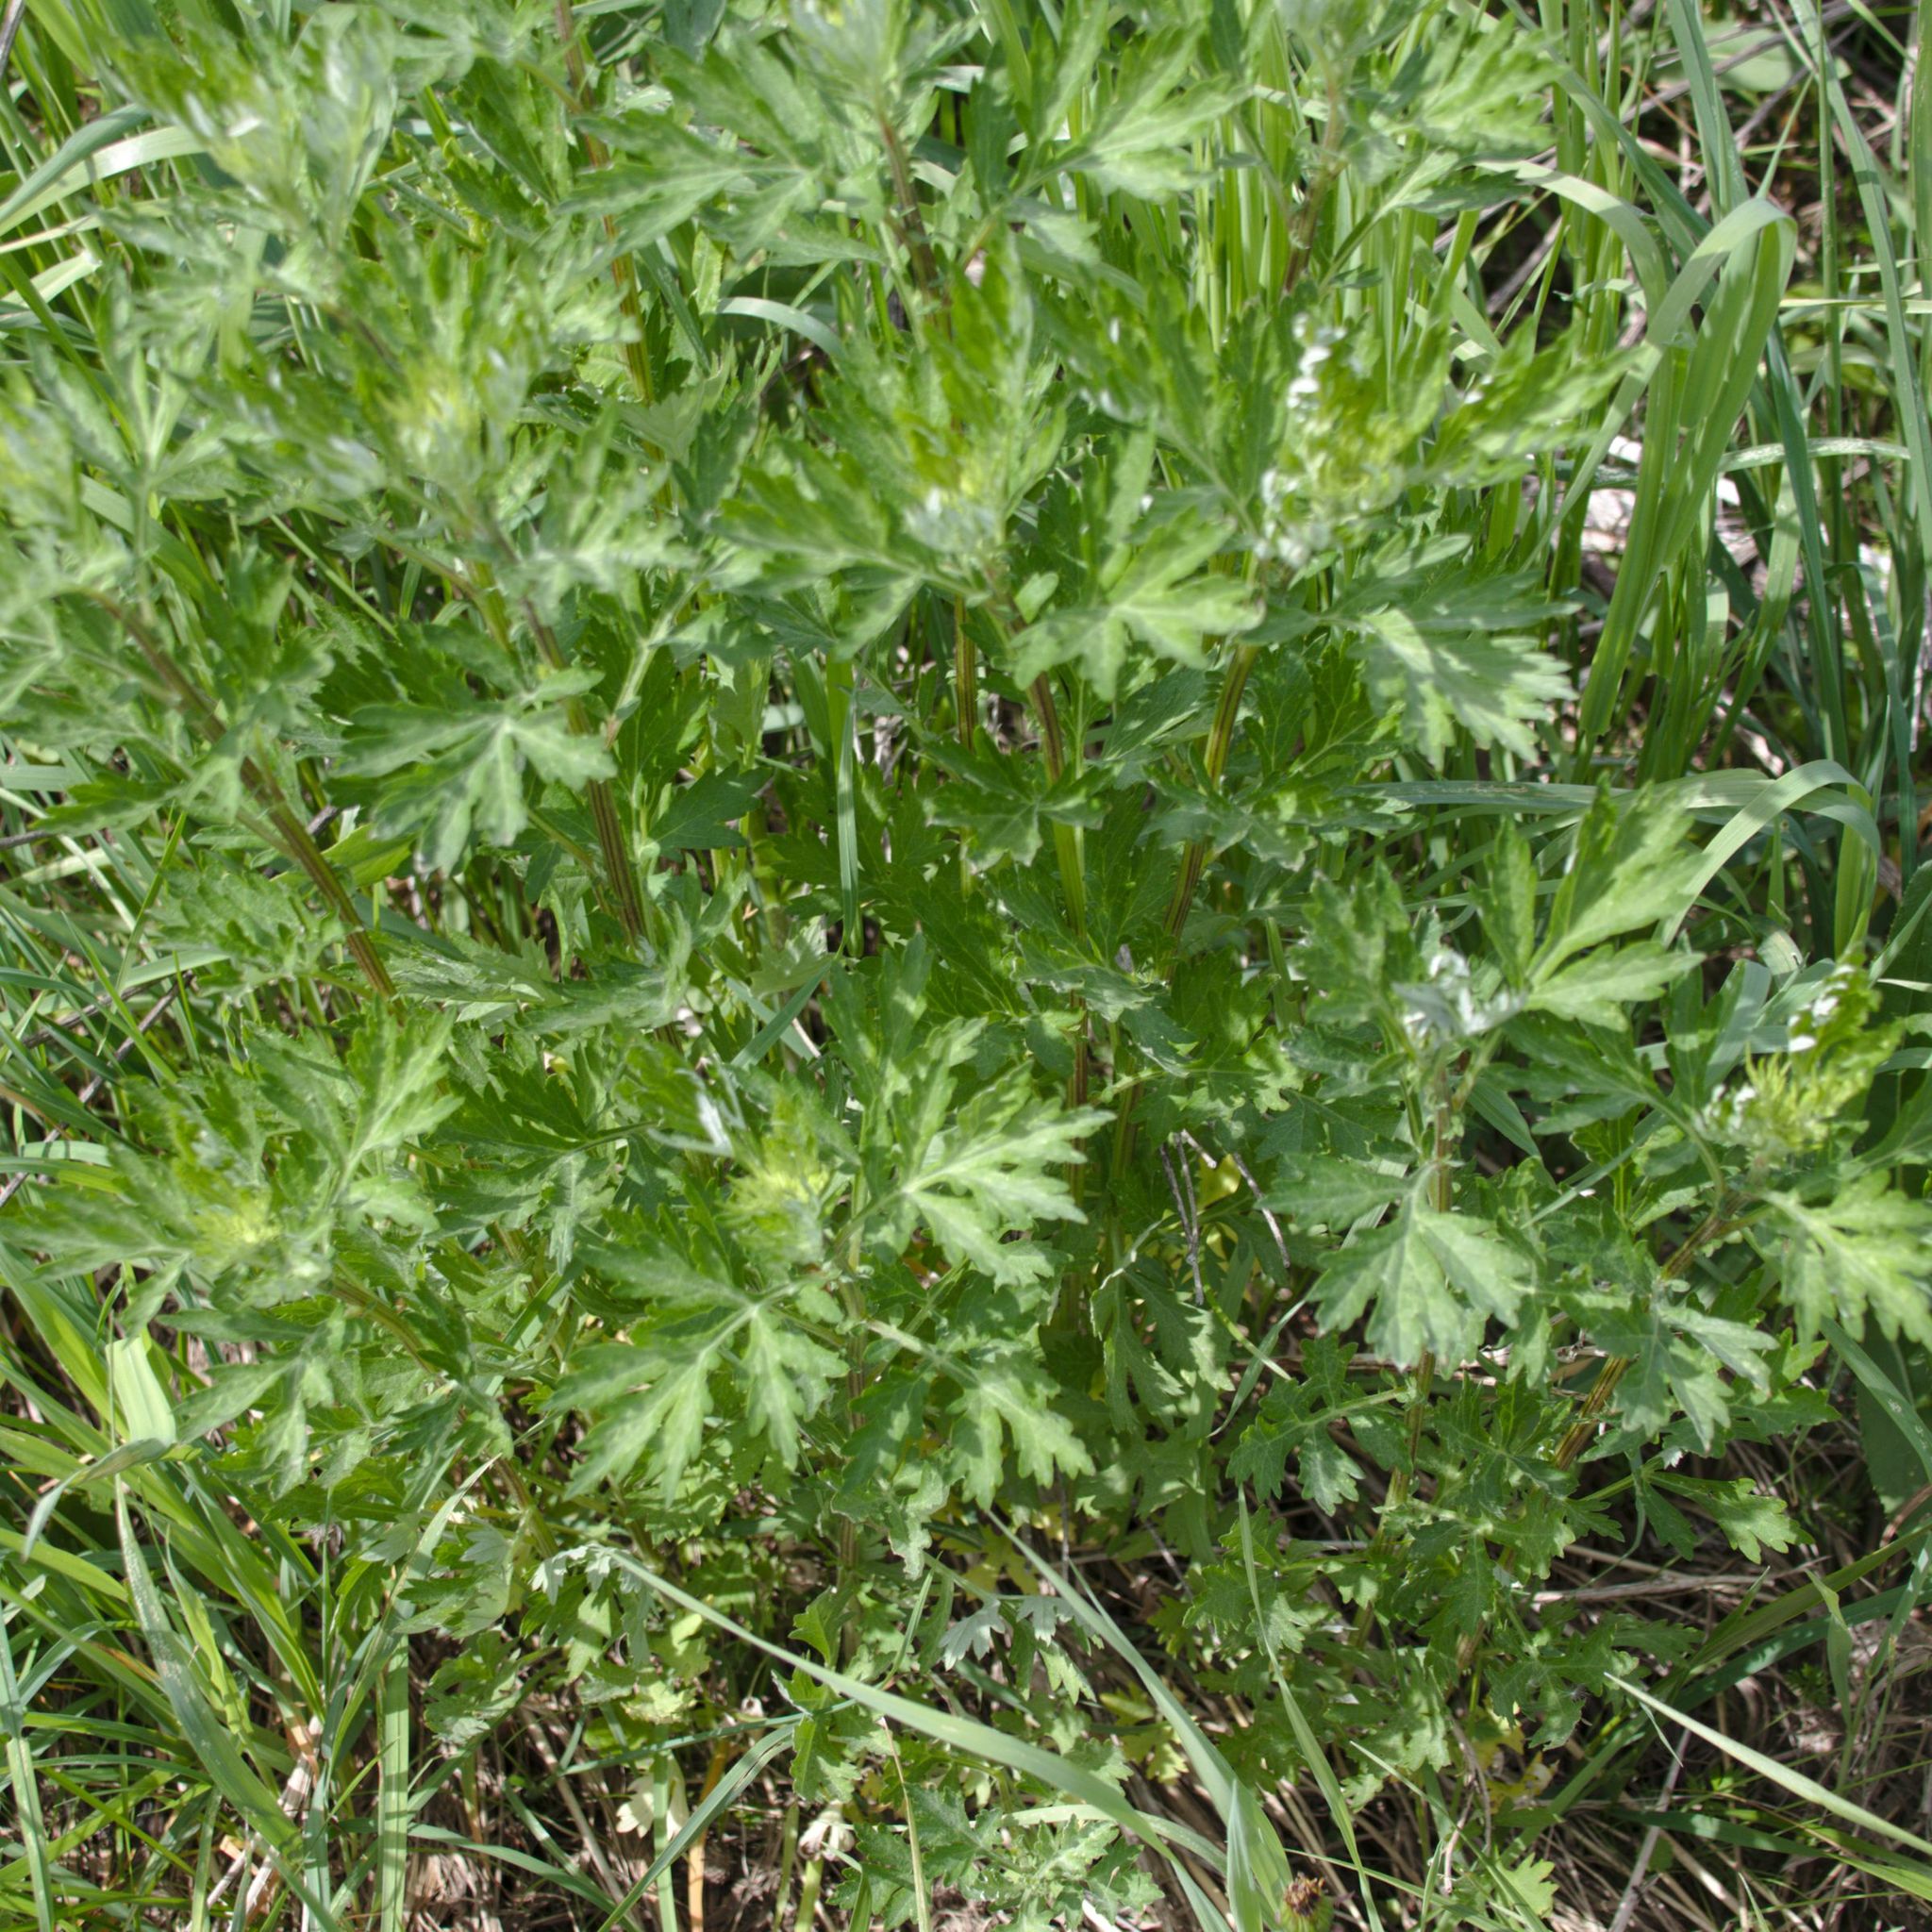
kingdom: Plantae
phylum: Tracheophyta
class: Magnoliopsida
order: Asterales
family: Asteraceae
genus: Artemisia
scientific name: Artemisia vulgaris
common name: Mugwort
